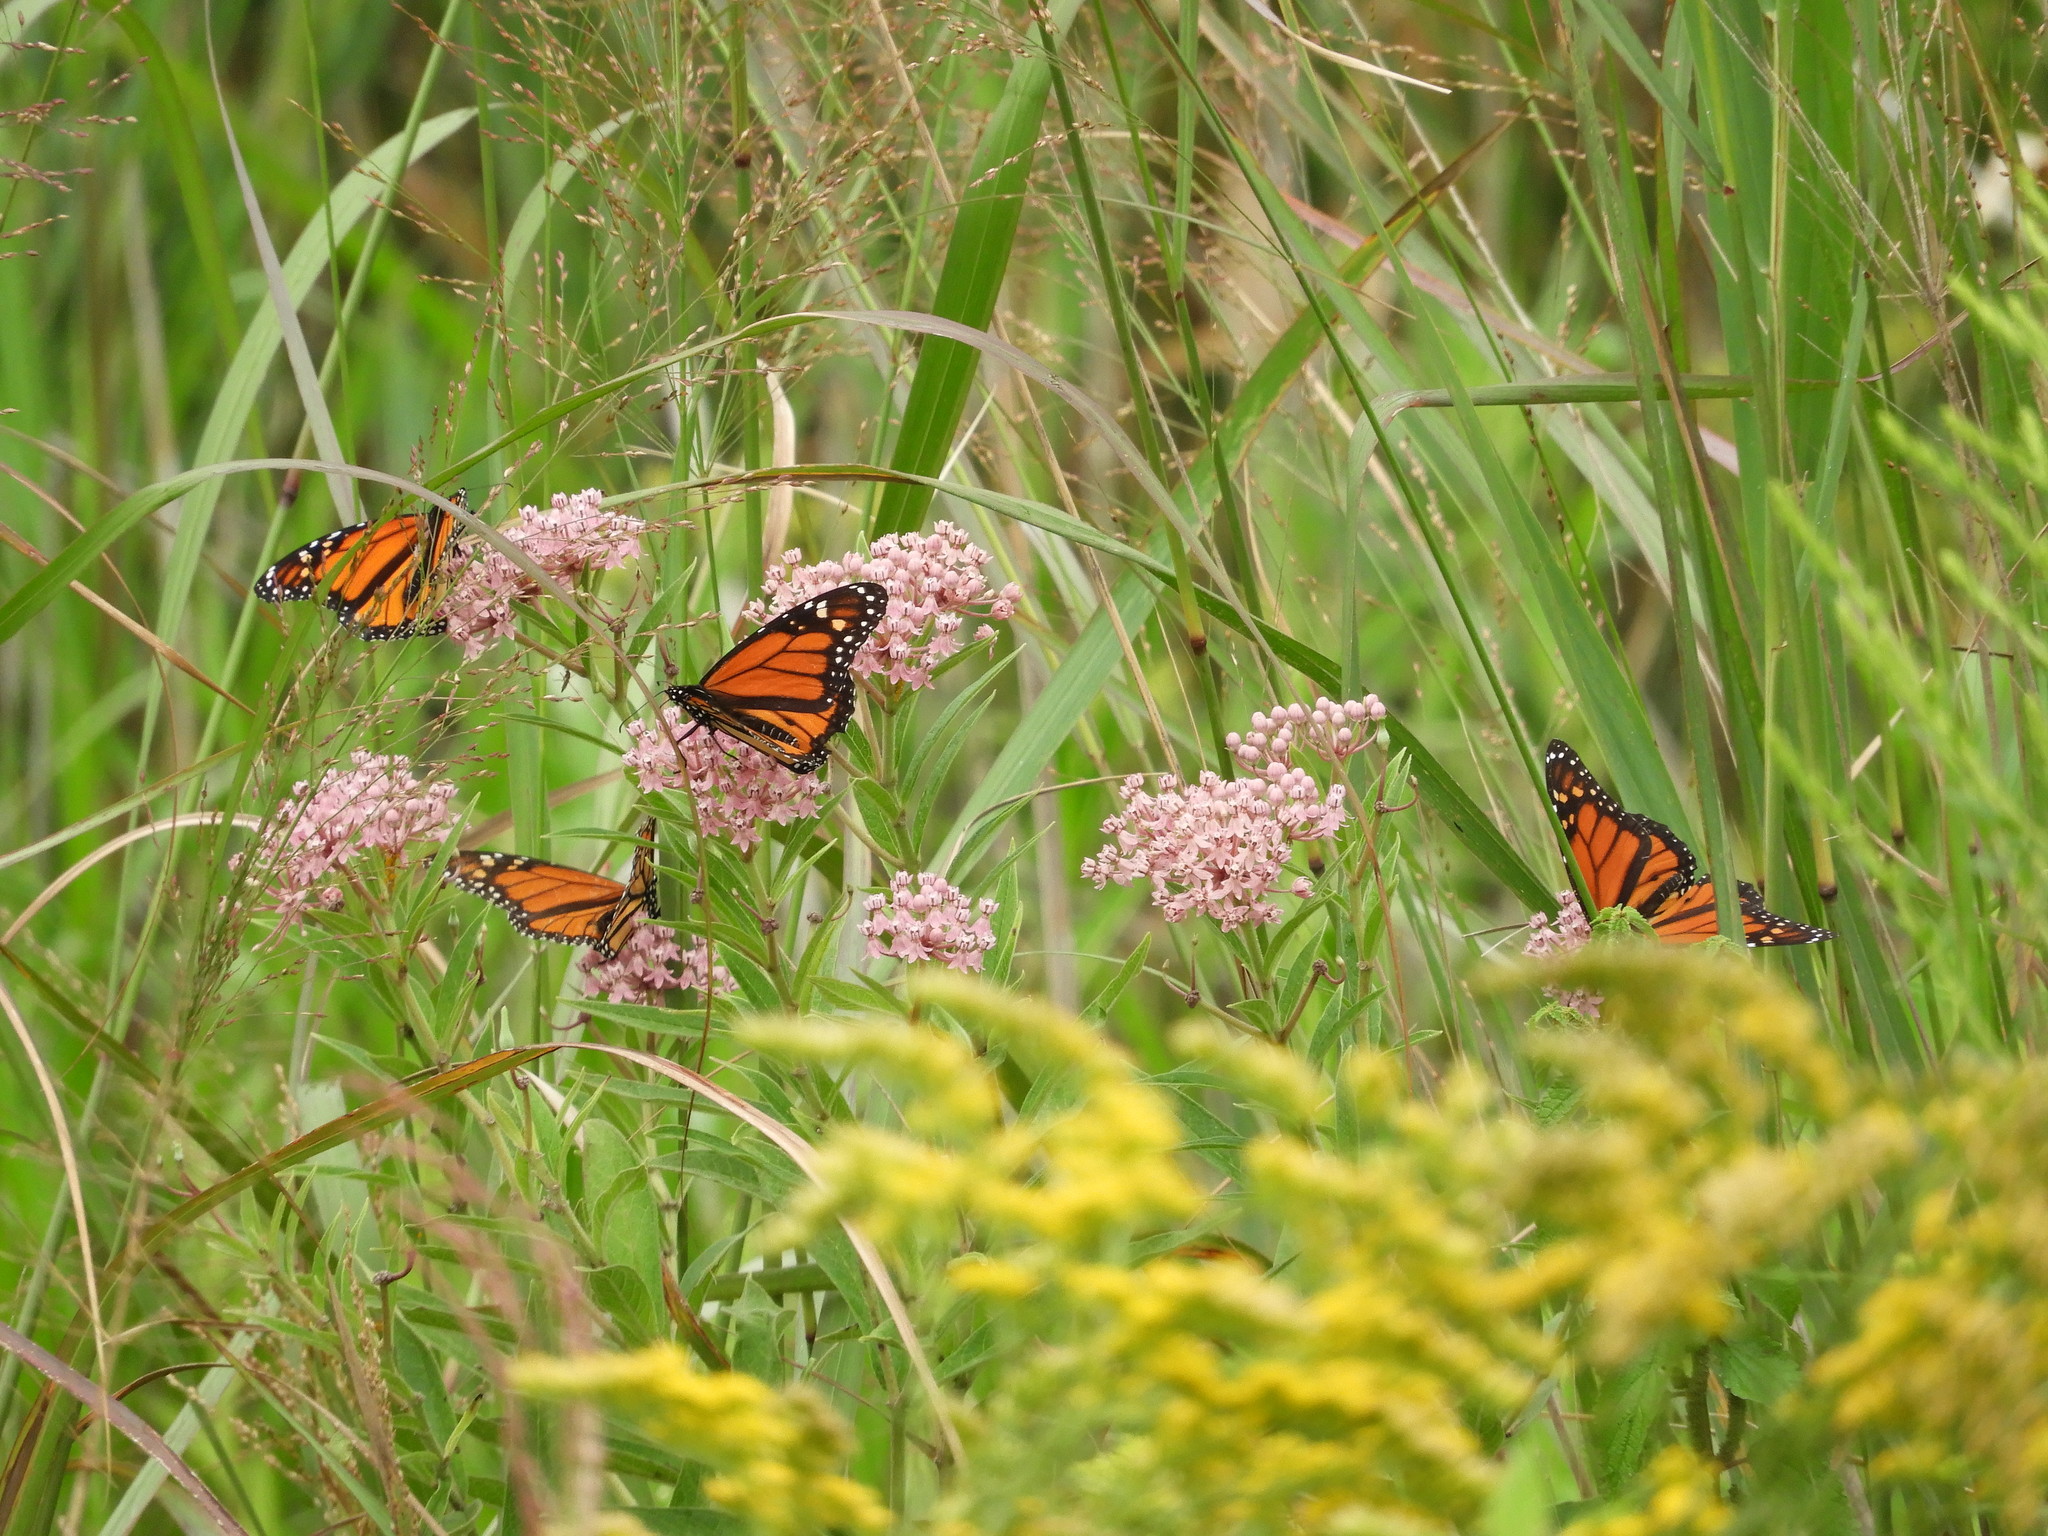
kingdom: Animalia
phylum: Arthropoda
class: Insecta
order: Lepidoptera
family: Nymphalidae
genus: Danaus
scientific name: Danaus plexippus
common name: Monarch
